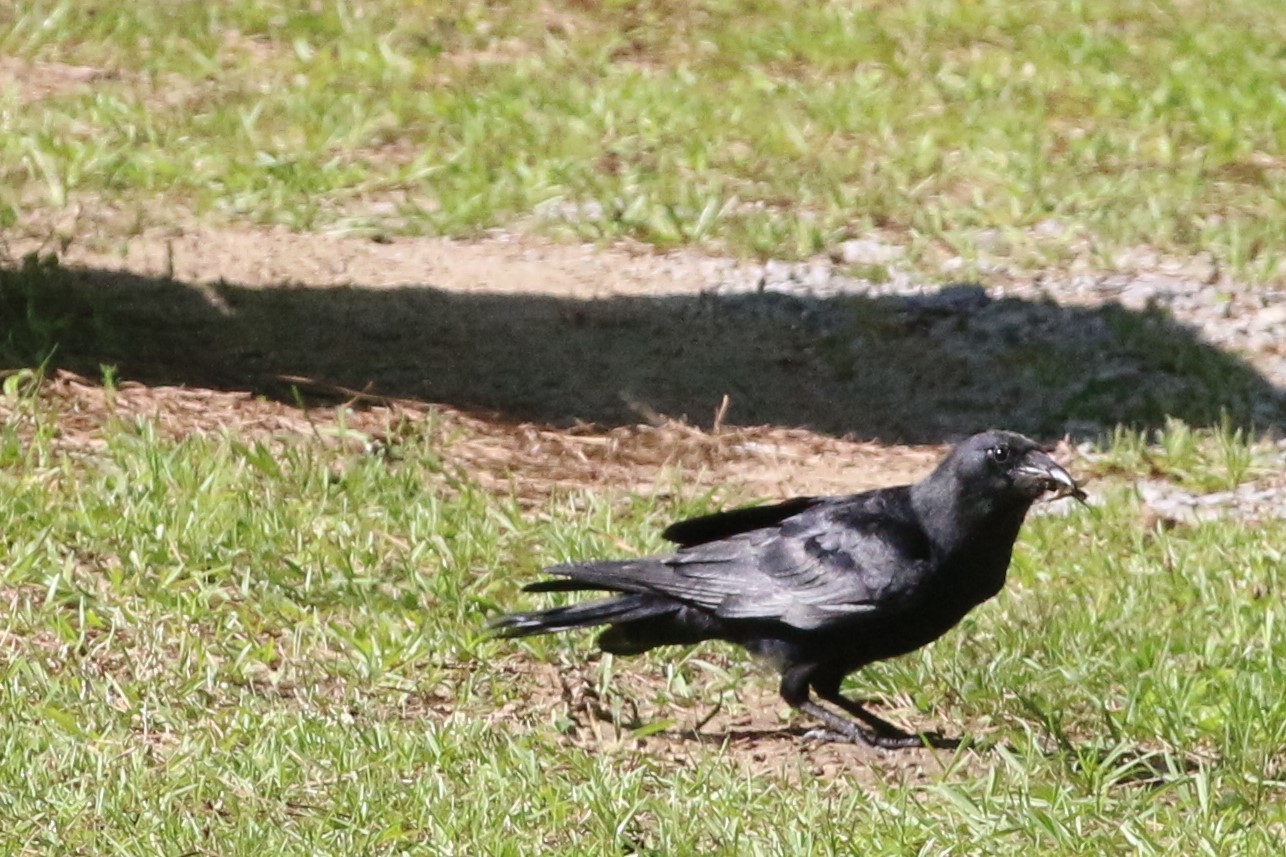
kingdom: Animalia
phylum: Chordata
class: Aves
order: Passeriformes
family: Corvidae
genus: Corvus
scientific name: Corvus
